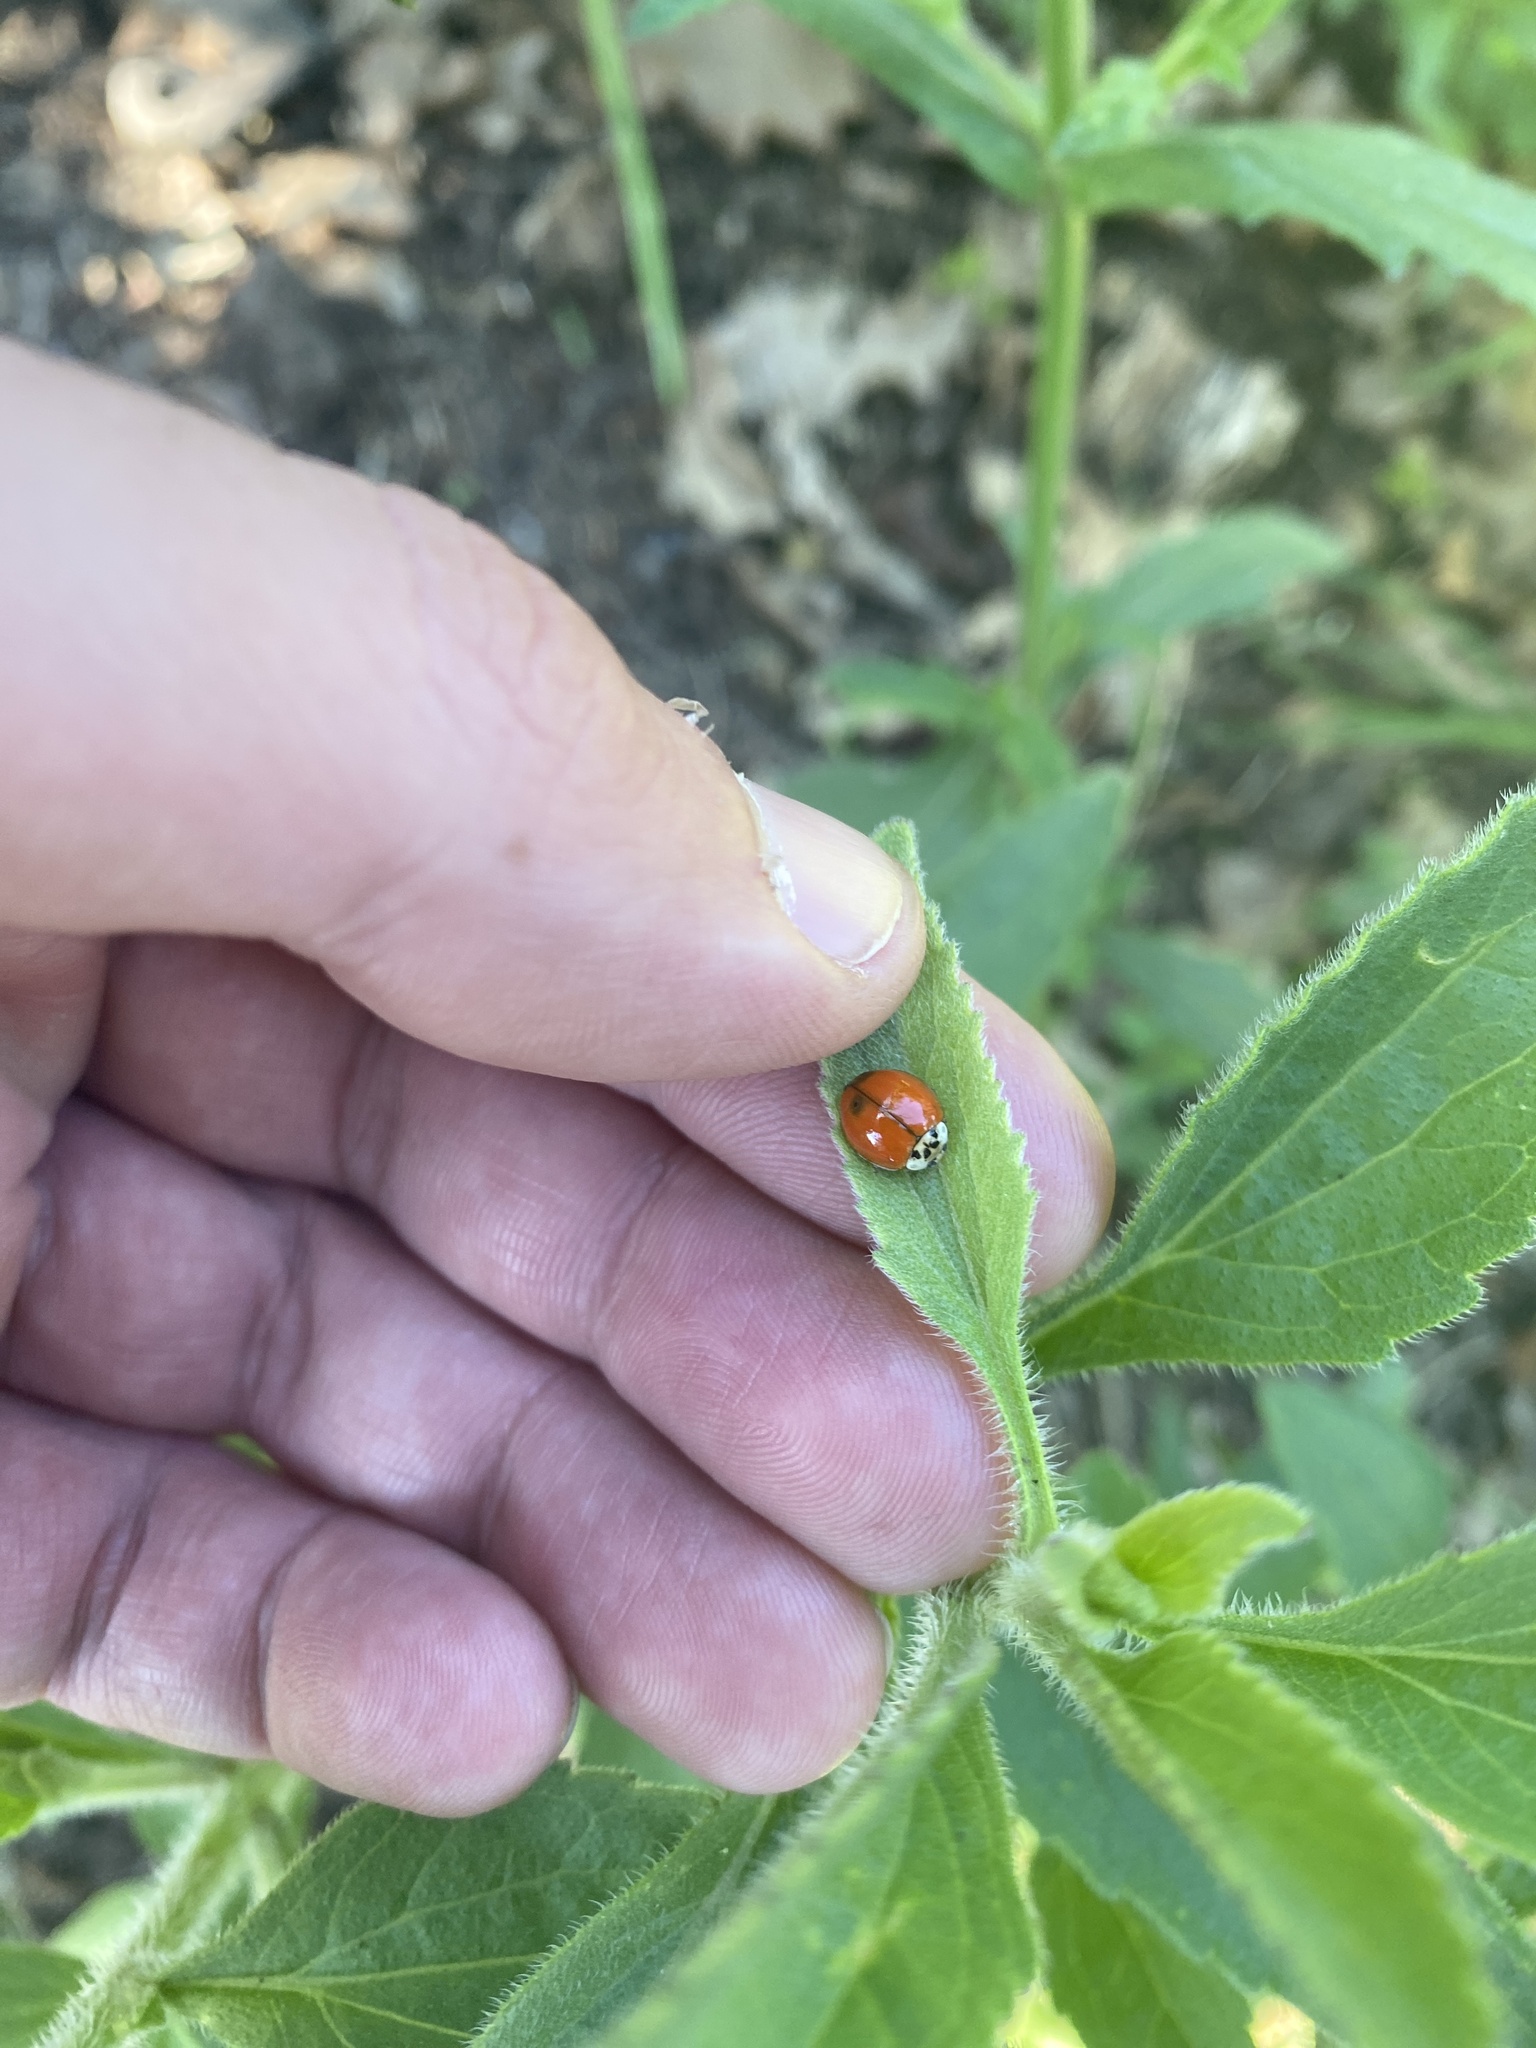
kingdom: Animalia
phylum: Arthropoda
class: Insecta
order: Coleoptera
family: Coccinellidae
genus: Harmonia
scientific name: Harmonia axyridis
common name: Harlequin ladybird
